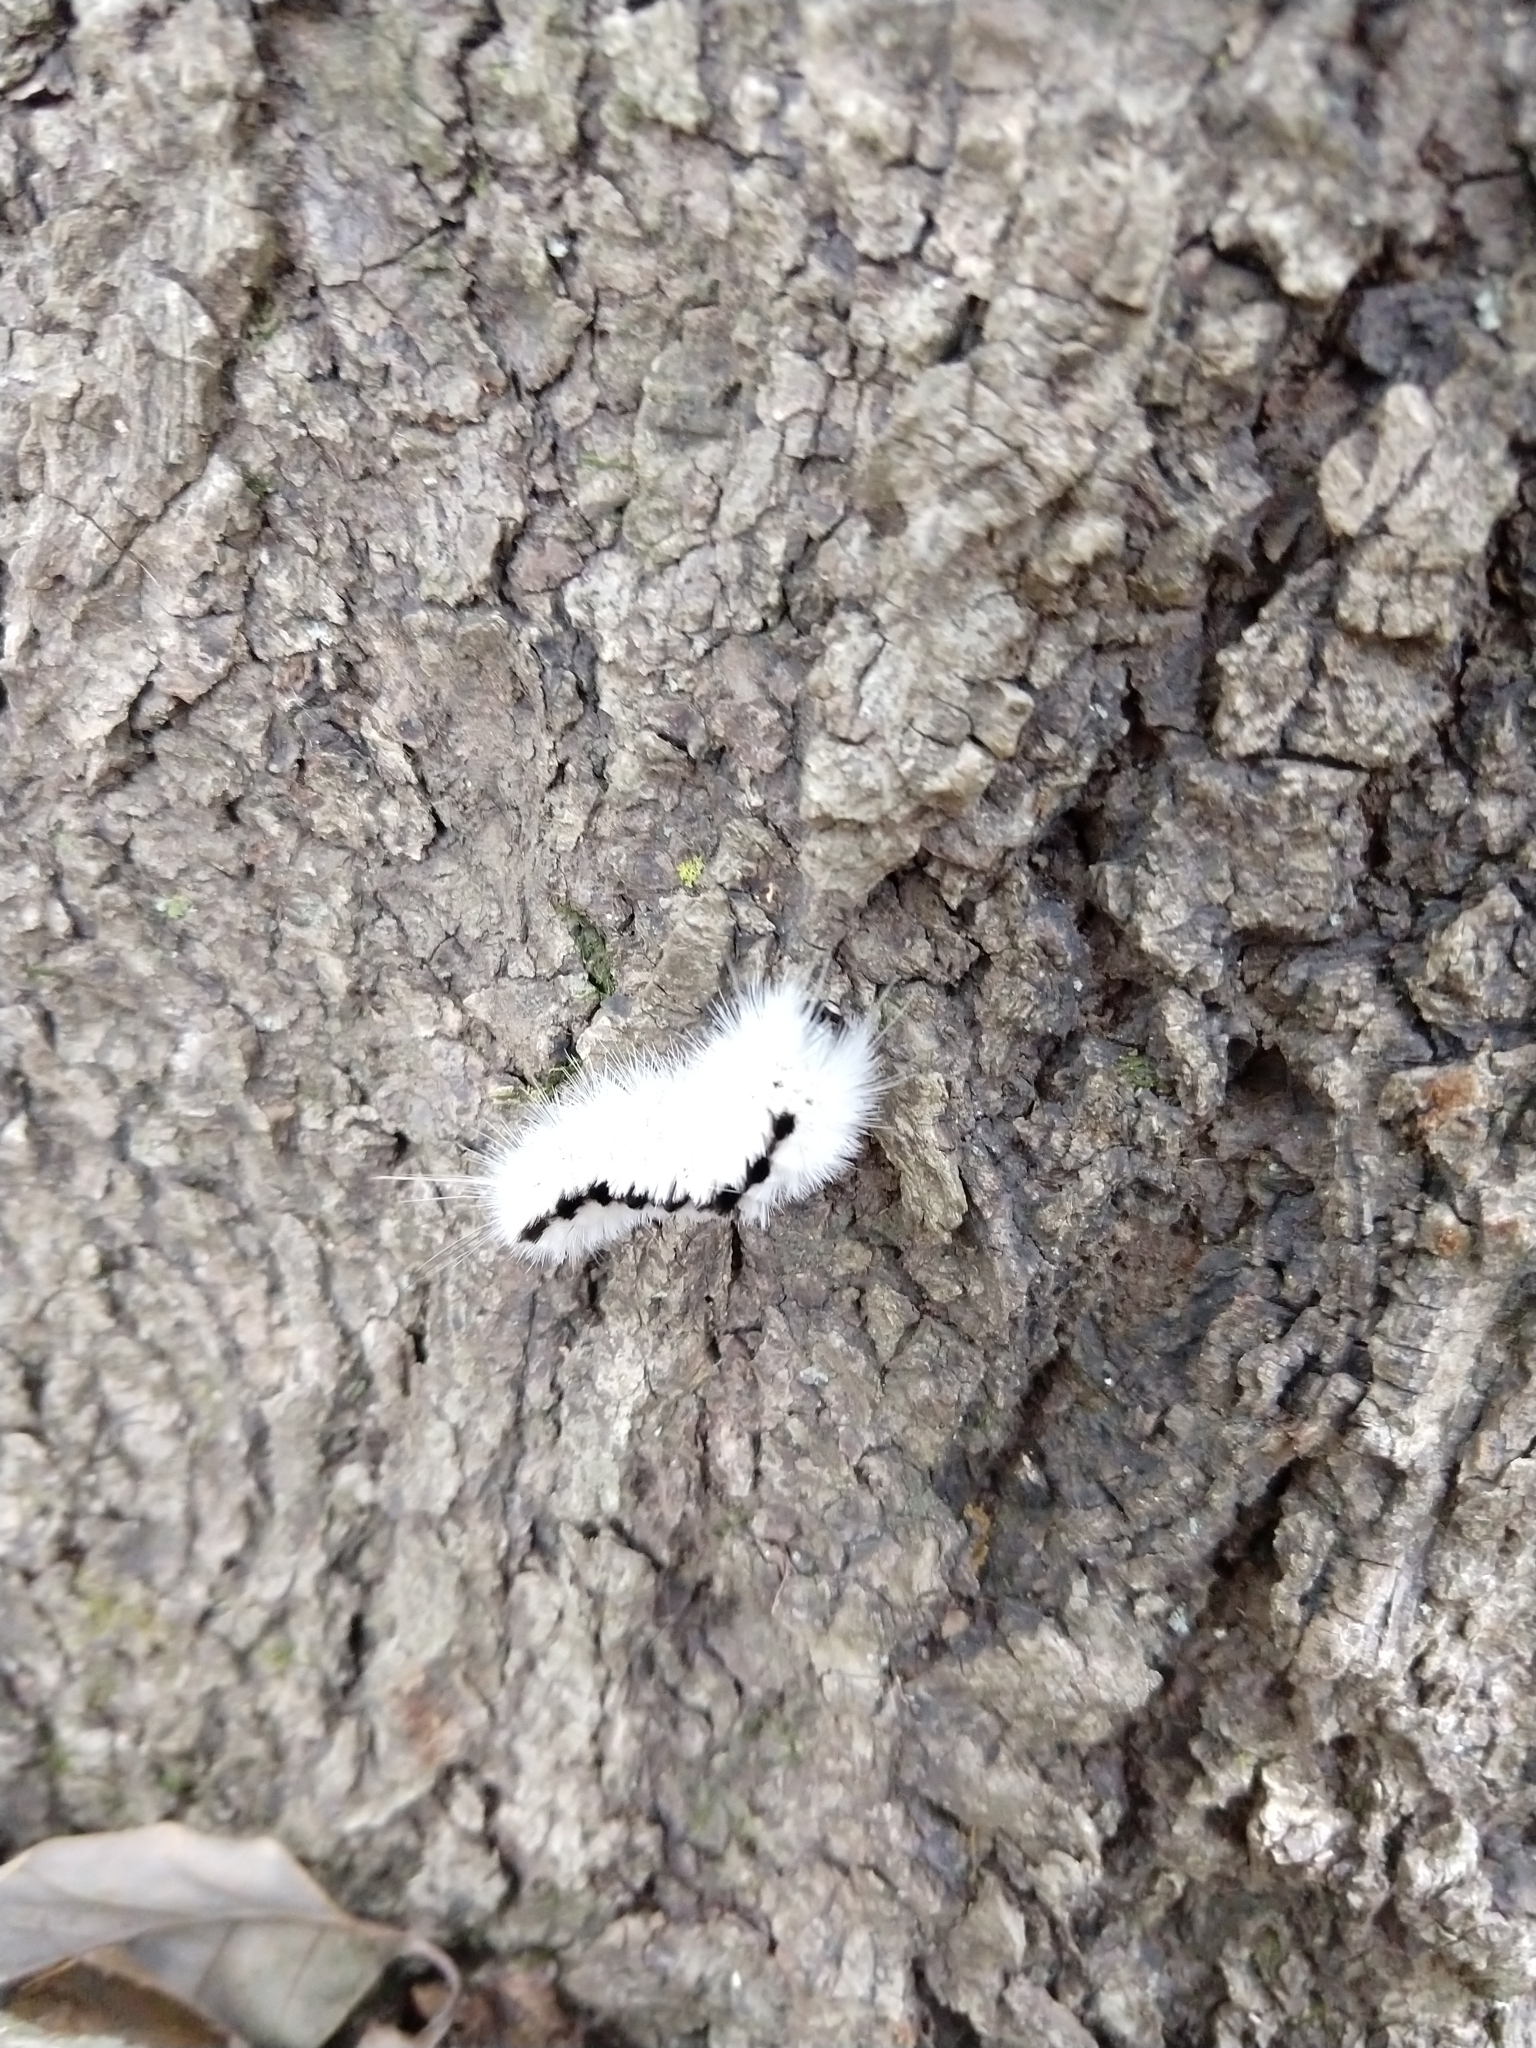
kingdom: Animalia
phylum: Arthropoda
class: Insecta
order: Lepidoptera
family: Erebidae
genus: Lophocampa
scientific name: Lophocampa caryae
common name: Hickory tussock moth
